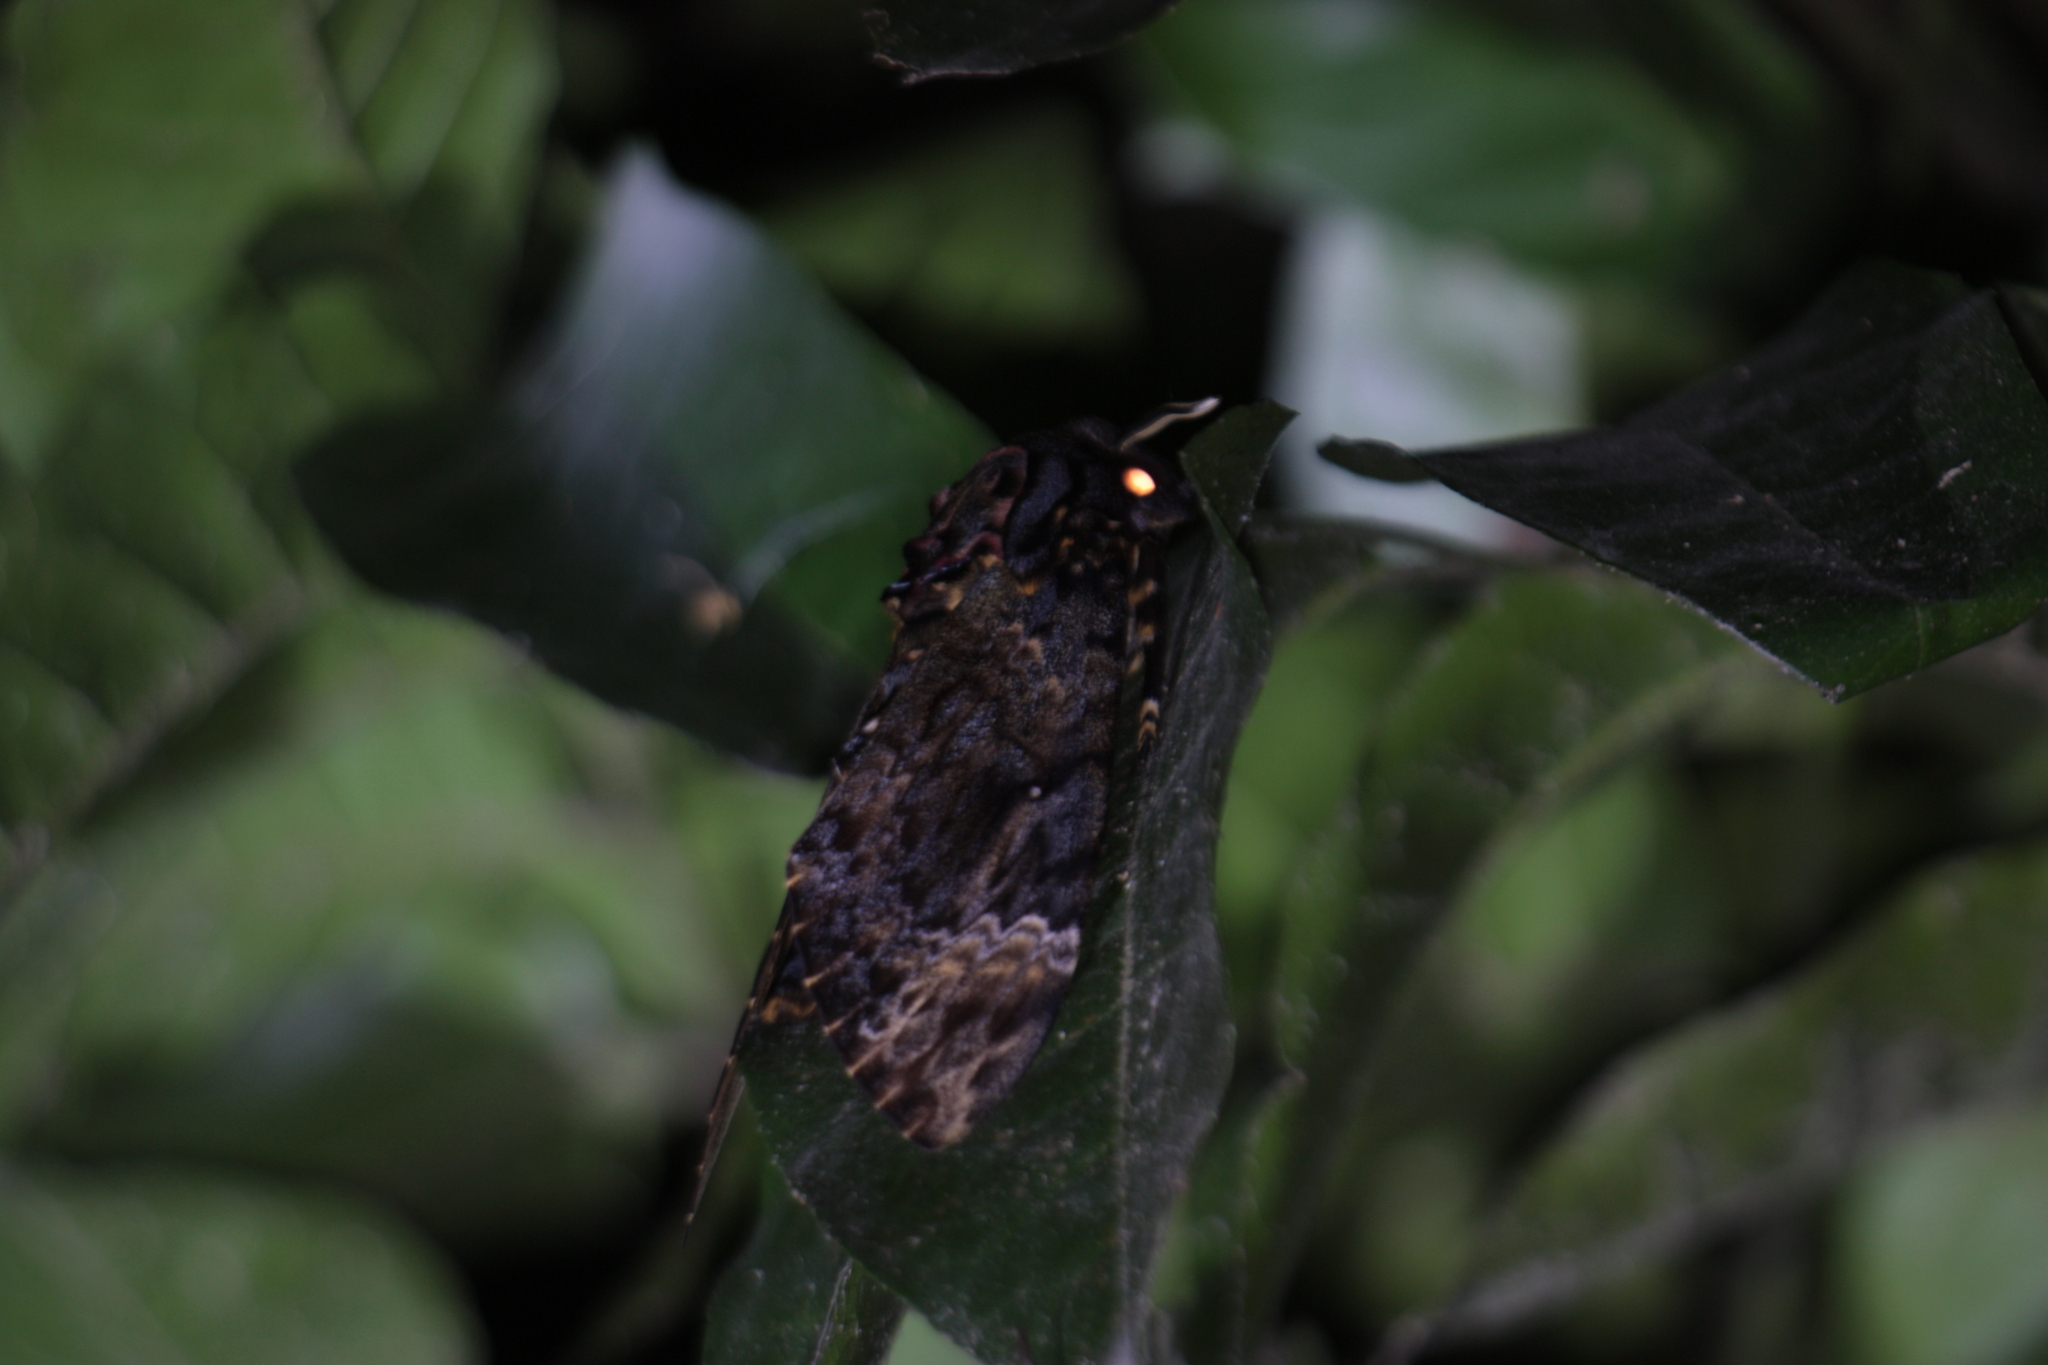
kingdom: Animalia
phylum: Arthropoda
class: Insecta
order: Lepidoptera
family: Sphingidae
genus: Acherontia
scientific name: Acherontia lachesis
